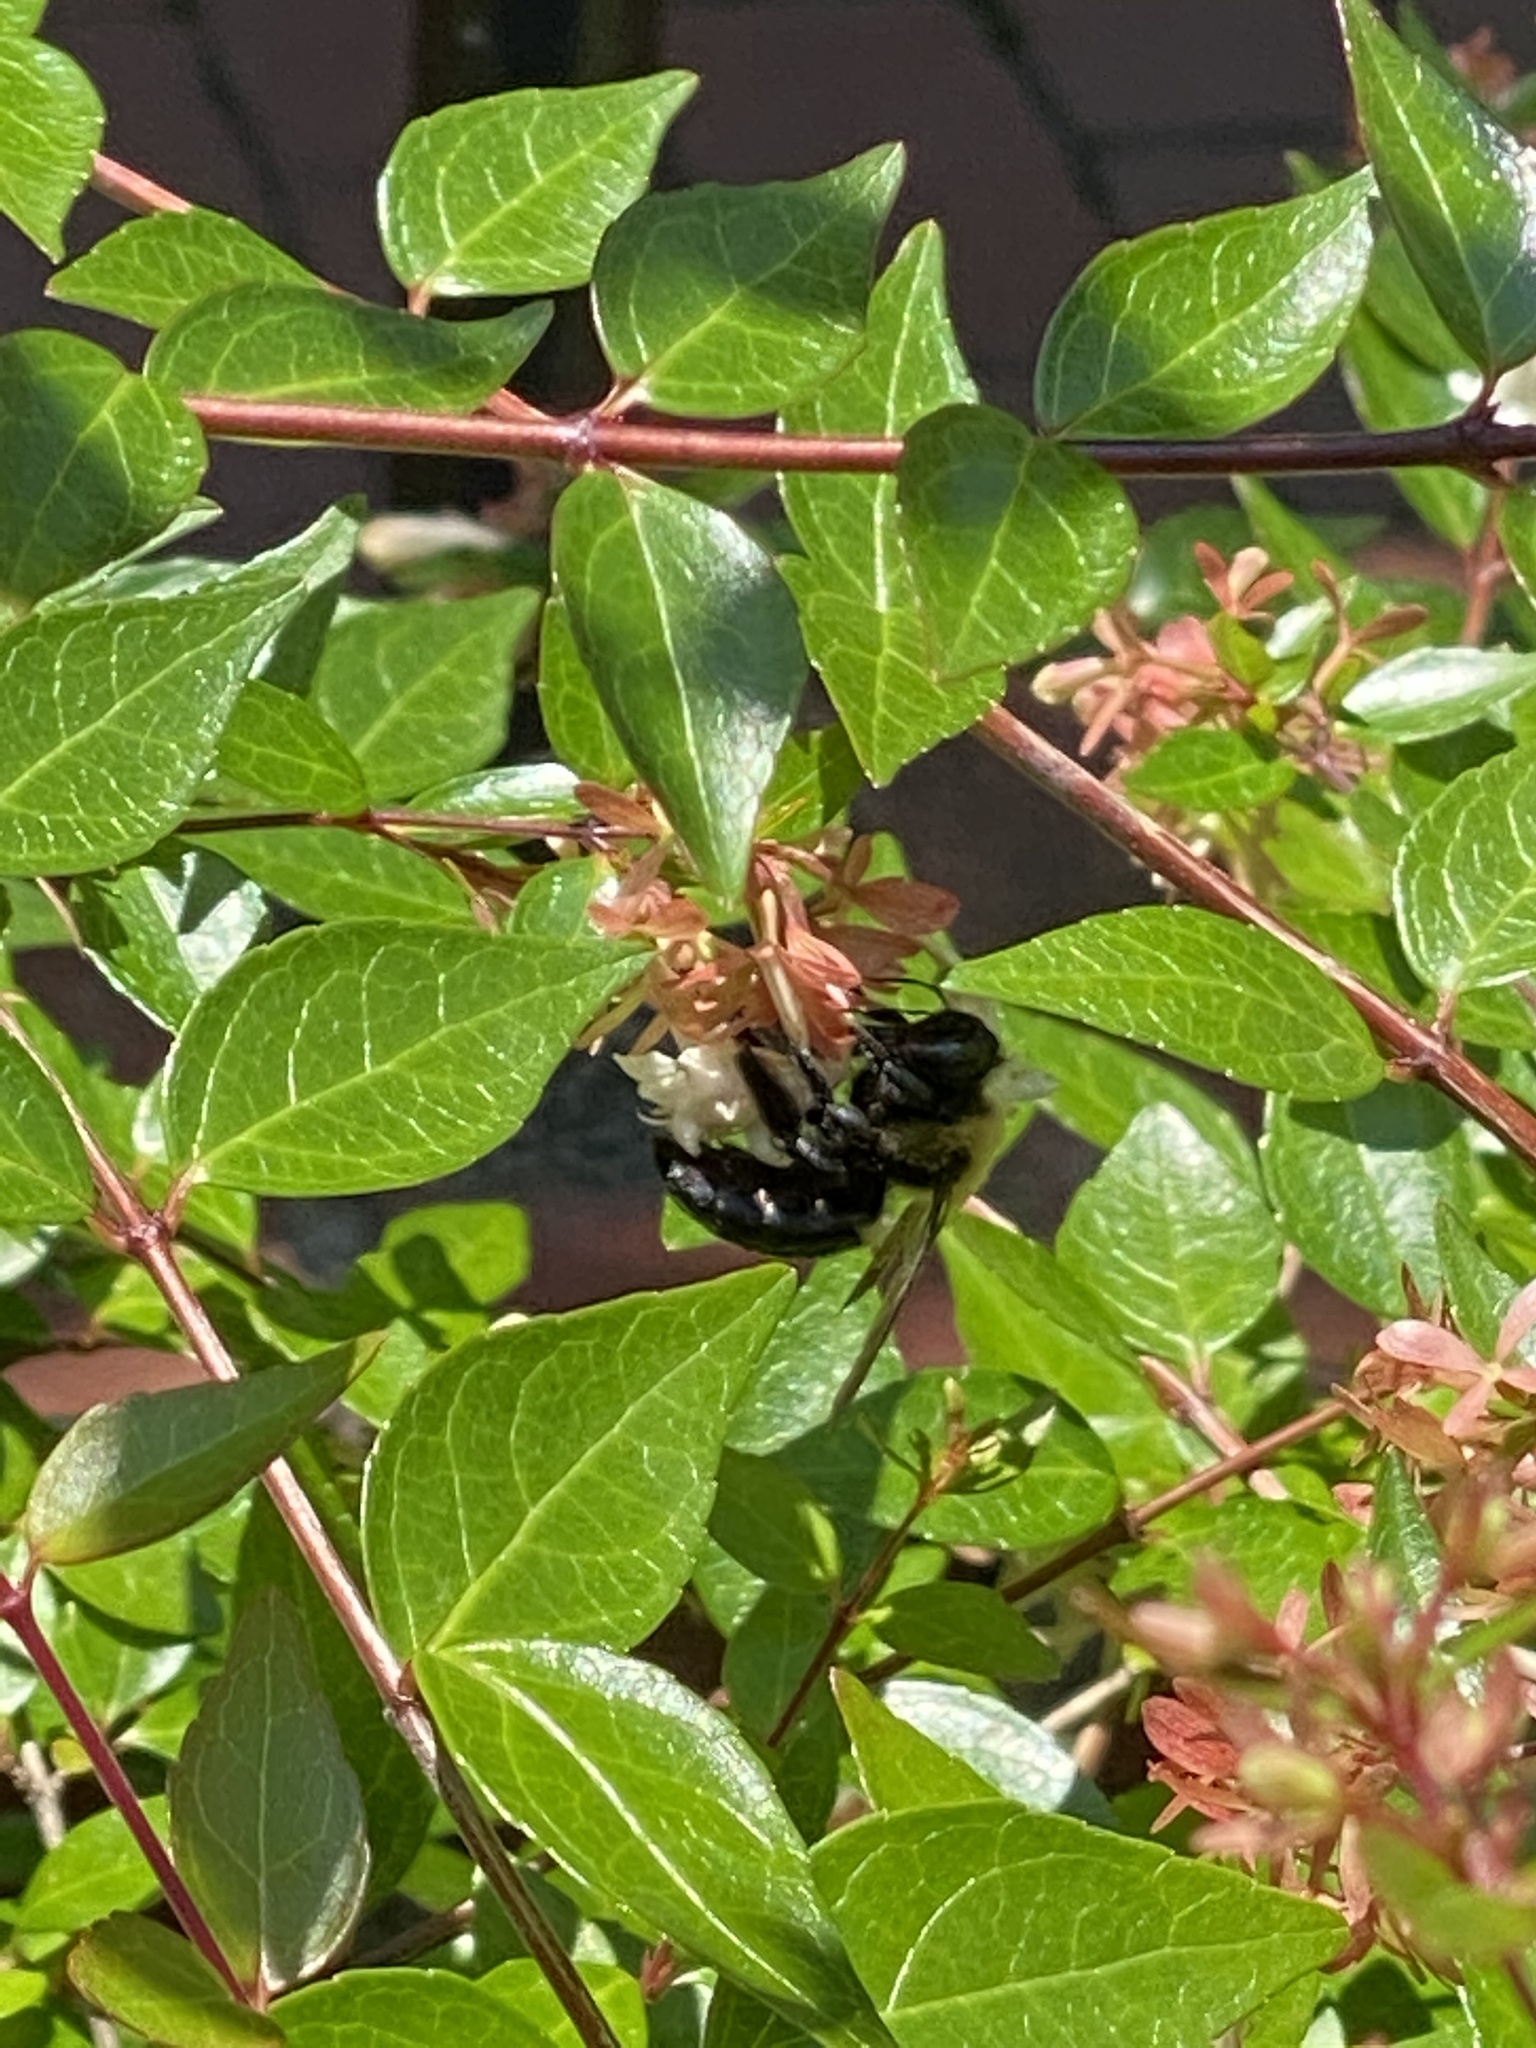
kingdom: Animalia
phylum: Arthropoda
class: Insecta
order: Hymenoptera
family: Apidae
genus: Xylocopa
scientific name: Xylocopa virginica
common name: Carpenter bee
